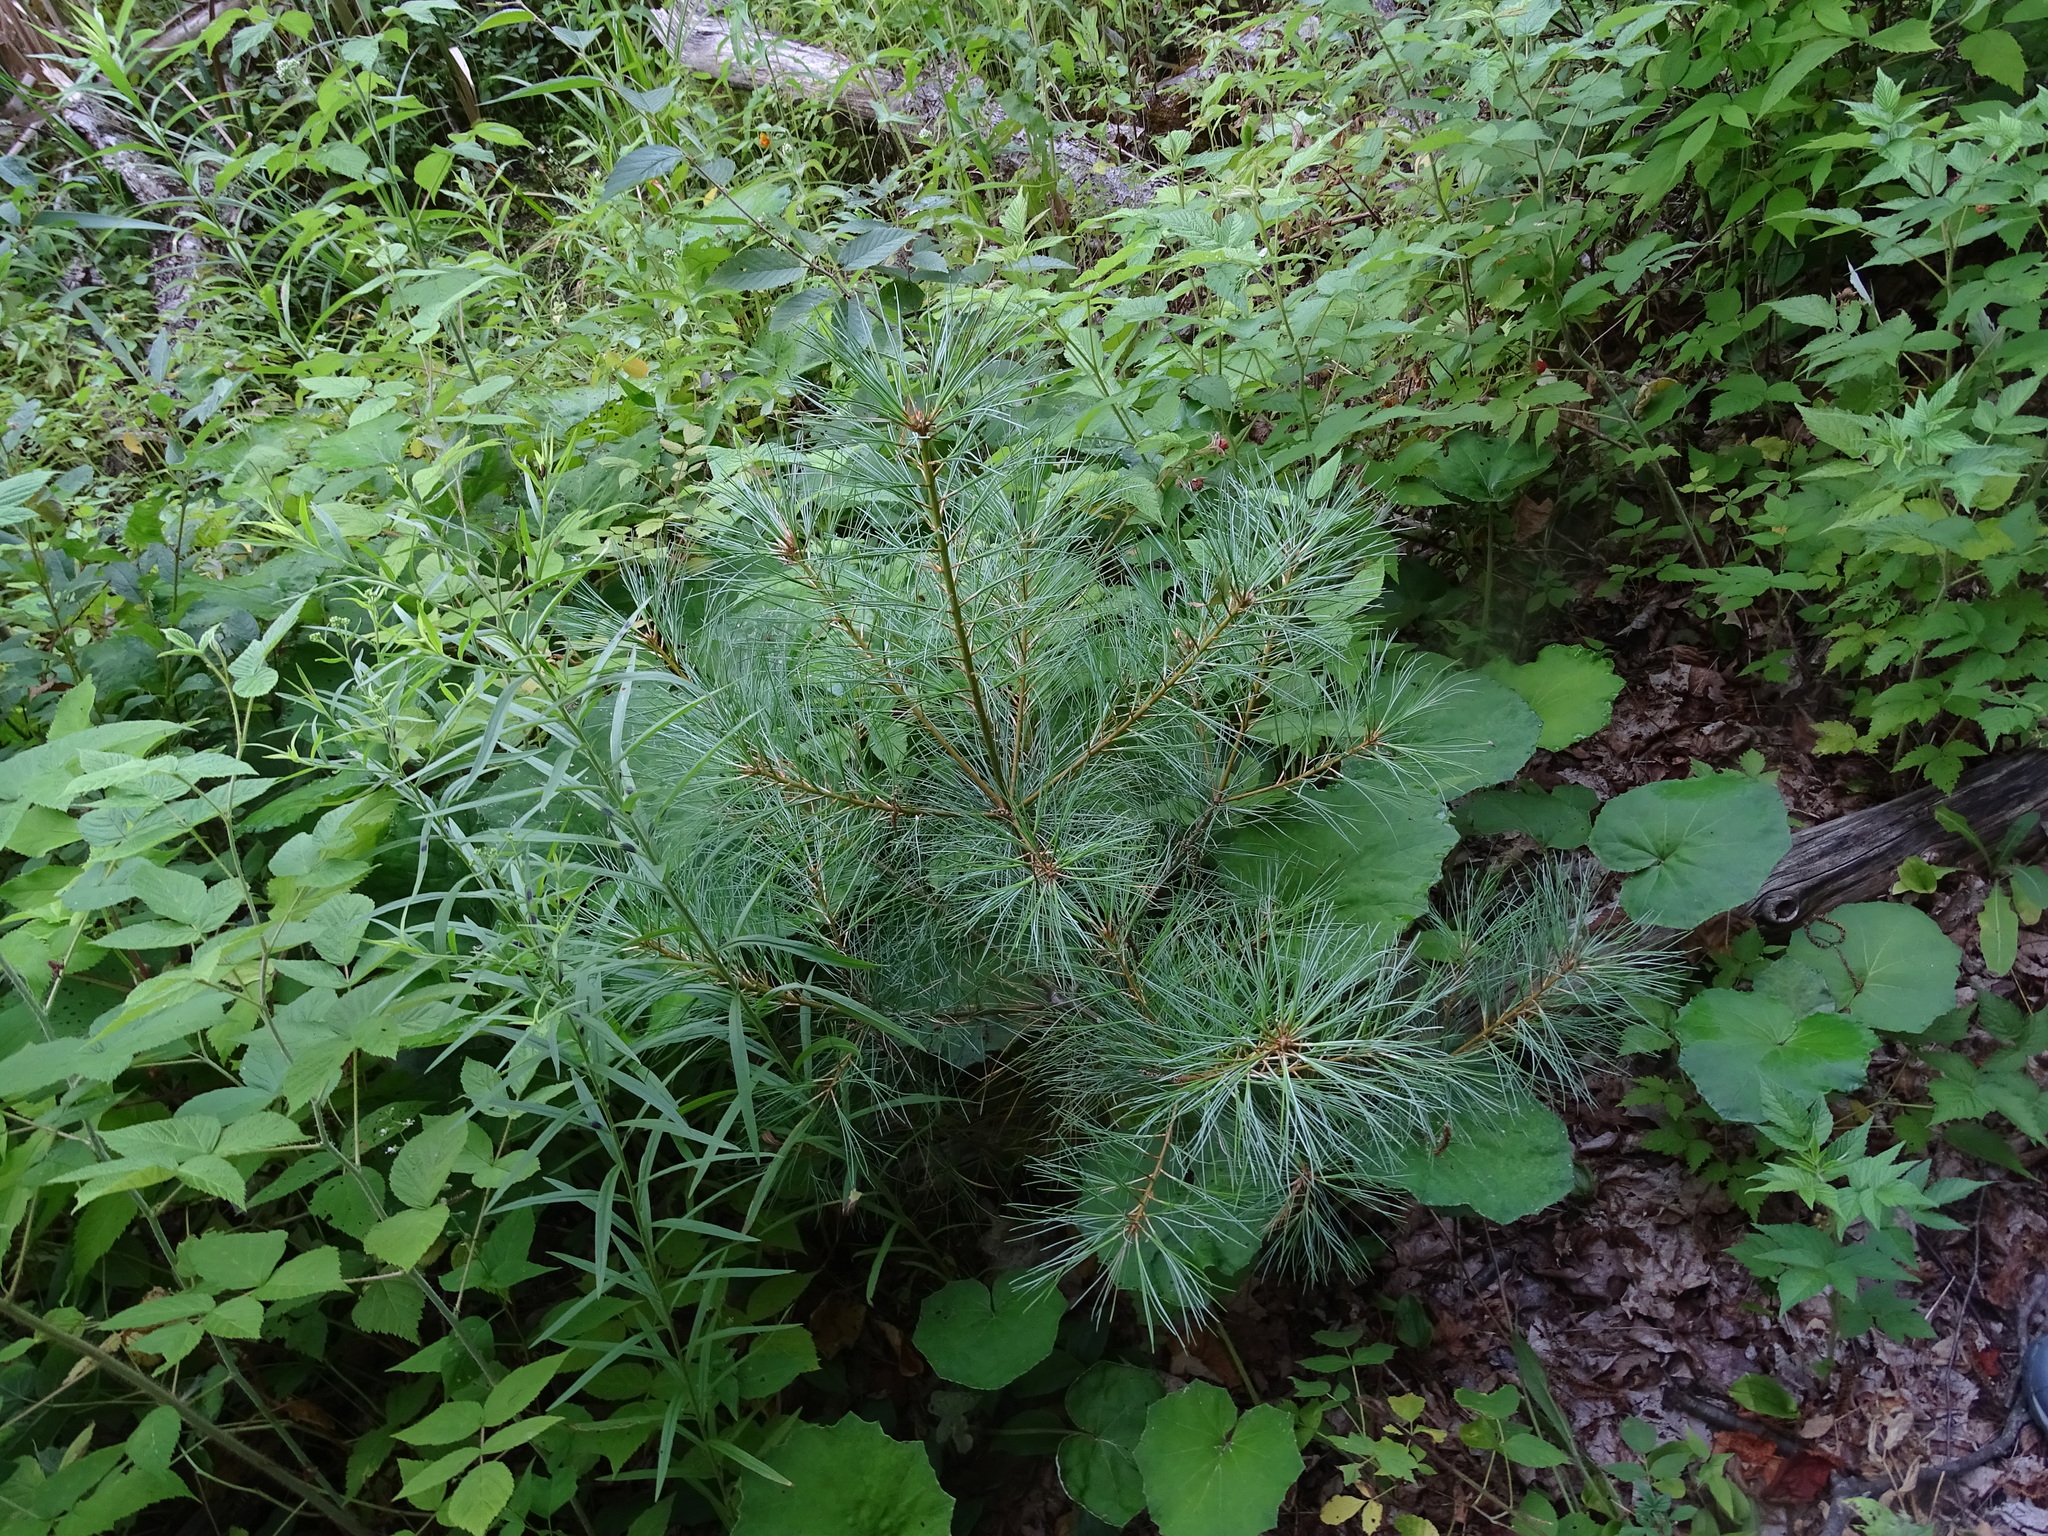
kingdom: Plantae
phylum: Tracheophyta
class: Pinopsida
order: Pinales
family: Pinaceae
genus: Pinus
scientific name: Pinus strobus
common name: Weymouth pine
